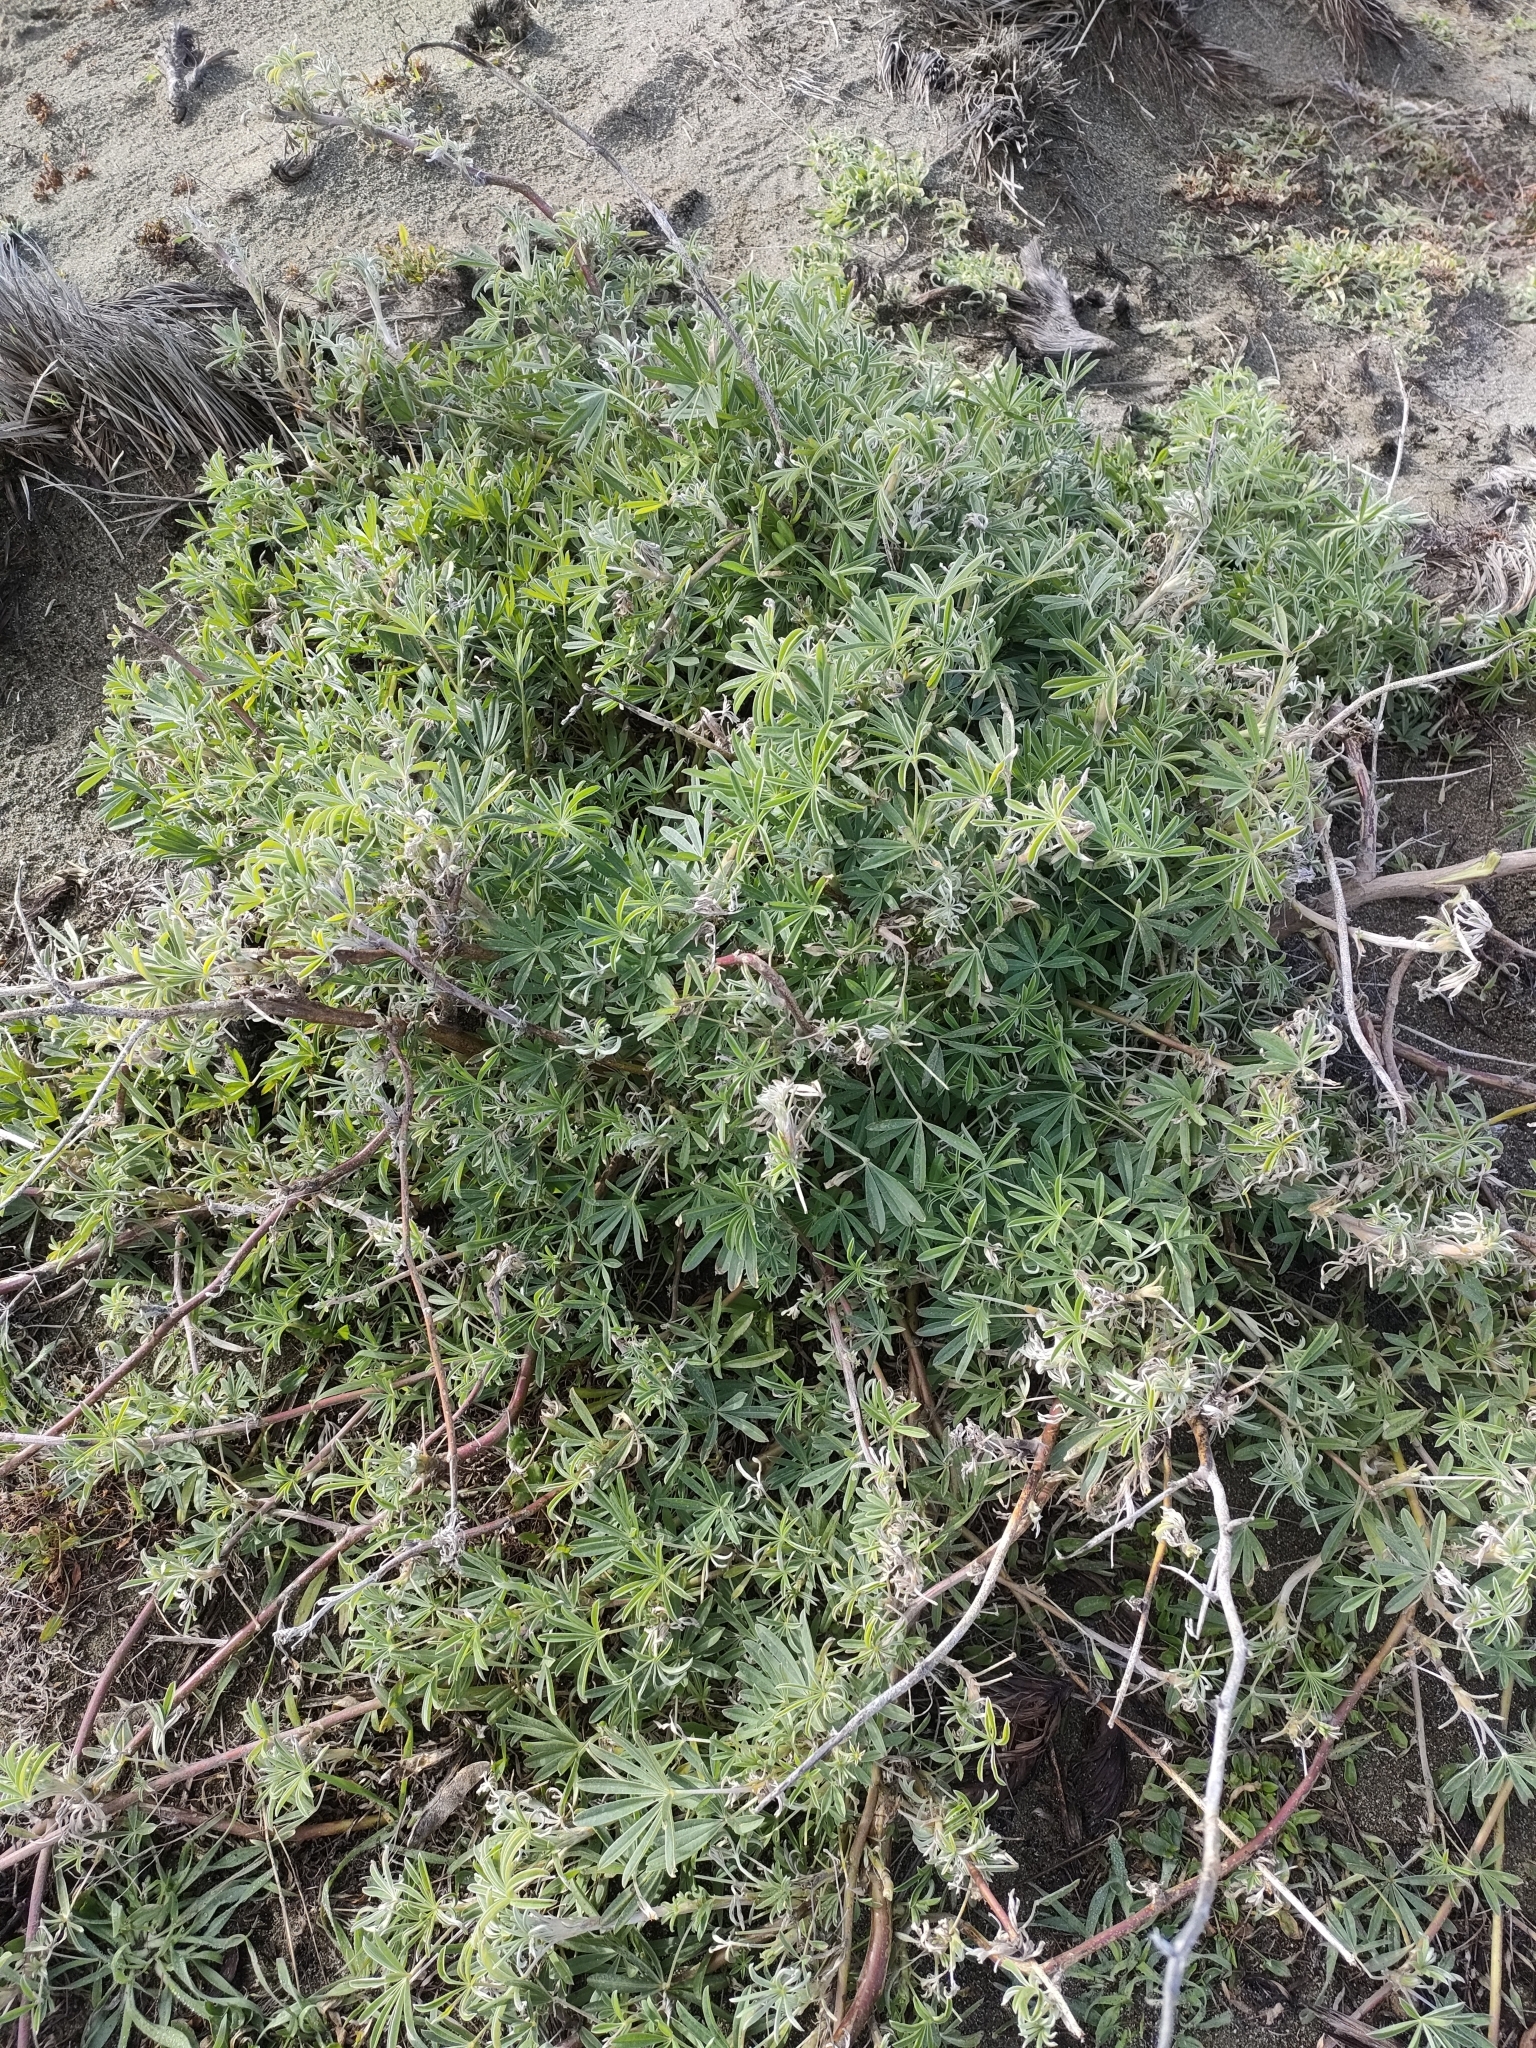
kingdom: Plantae
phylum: Tracheophyta
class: Magnoliopsida
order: Fabales
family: Fabaceae
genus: Lupinus
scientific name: Lupinus arboreus
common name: Yellow bush lupine
